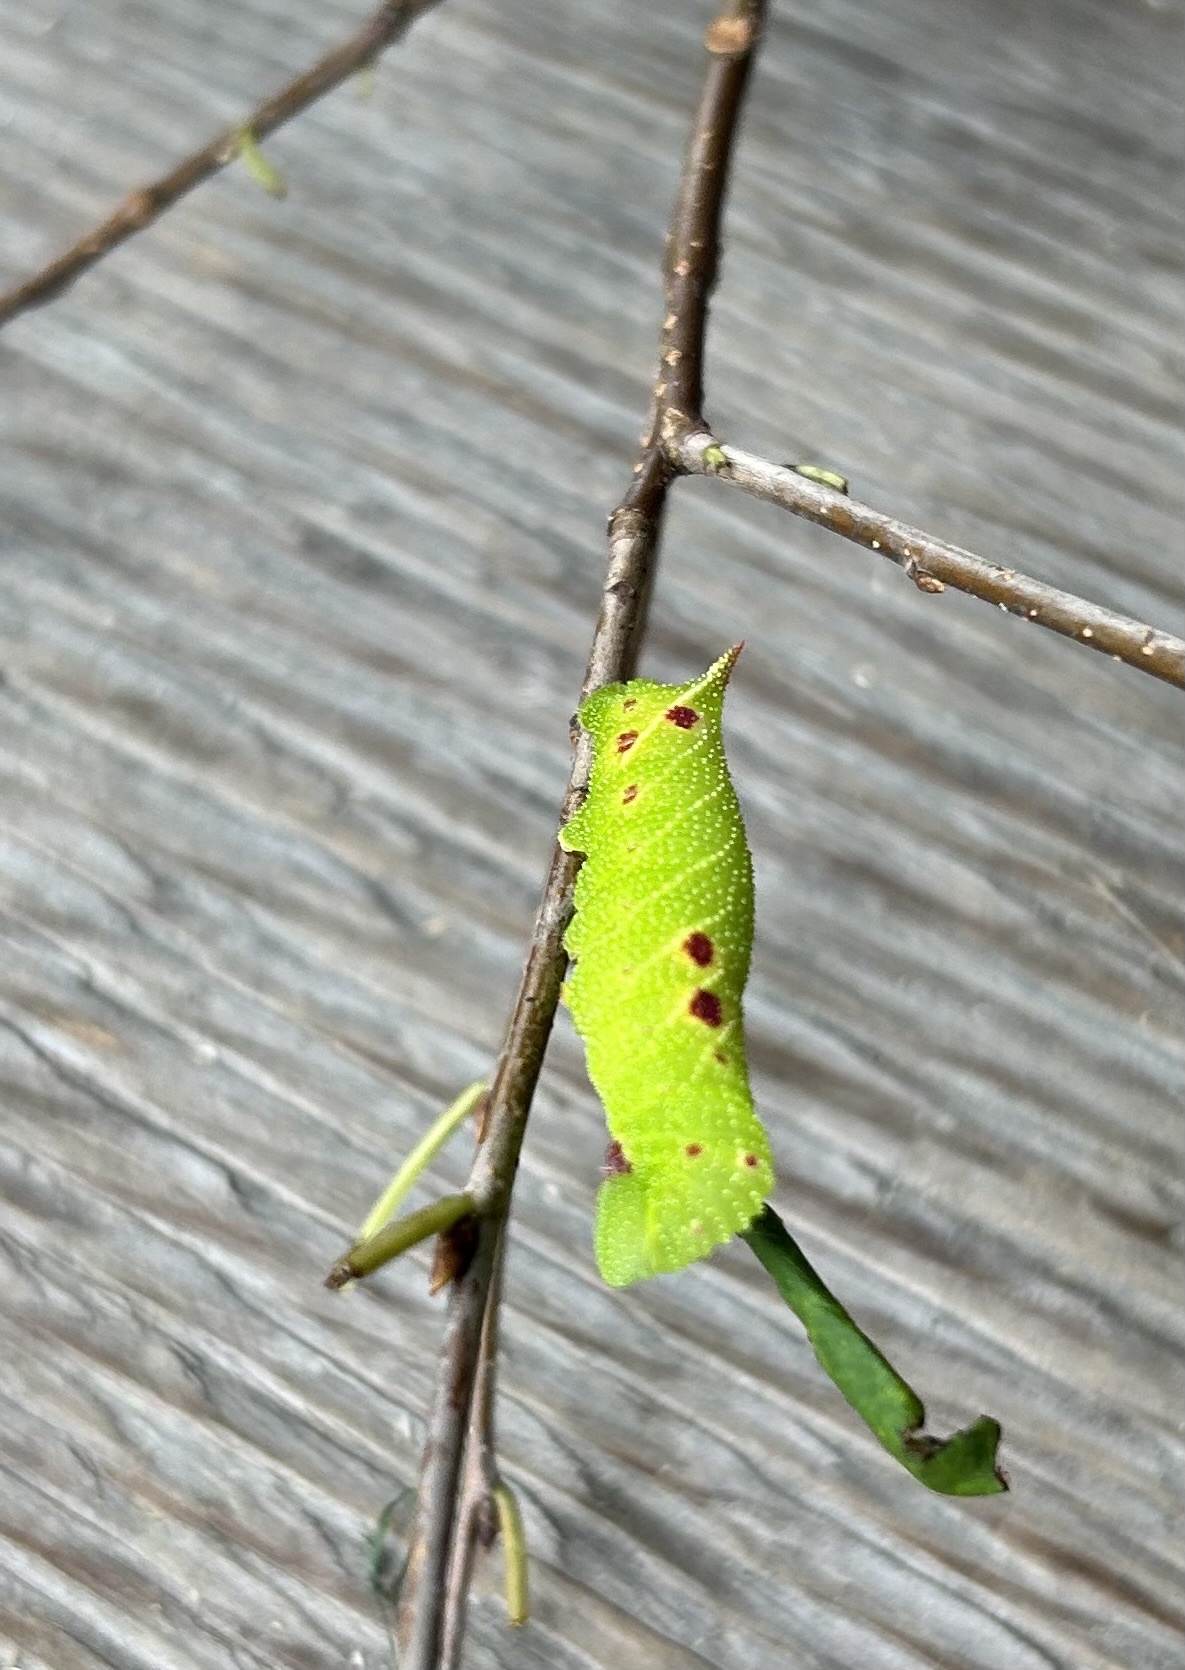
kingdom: Animalia
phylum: Arthropoda
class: Insecta
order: Lepidoptera
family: Sphingidae
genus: Paonias
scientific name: Paonias myops
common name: Small-eyed sphinx
